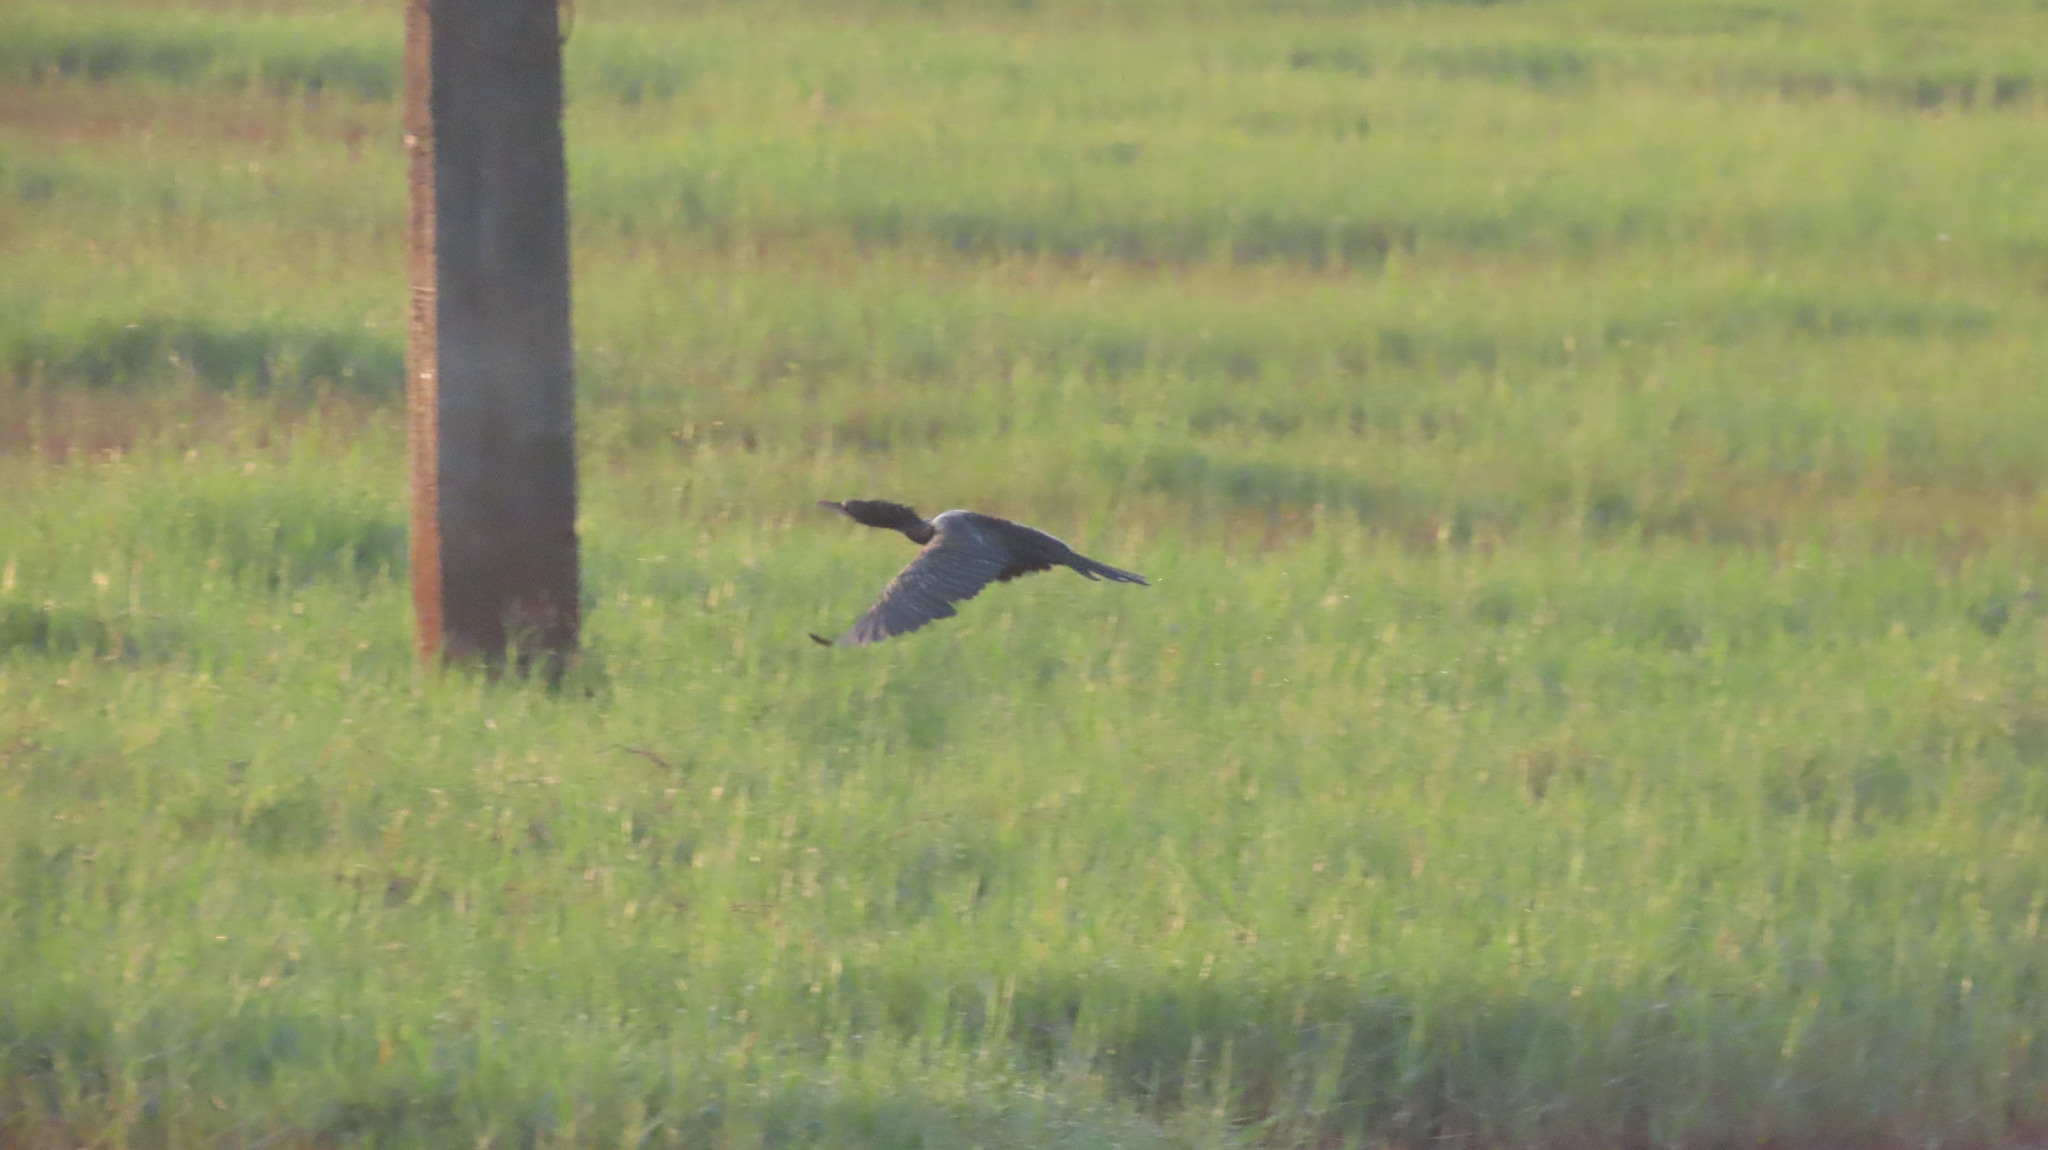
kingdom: Animalia
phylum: Chordata
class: Aves
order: Suliformes
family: Phalacrocoracidae
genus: Microcarbo
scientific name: Microcarbo niger
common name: Little cormorant
